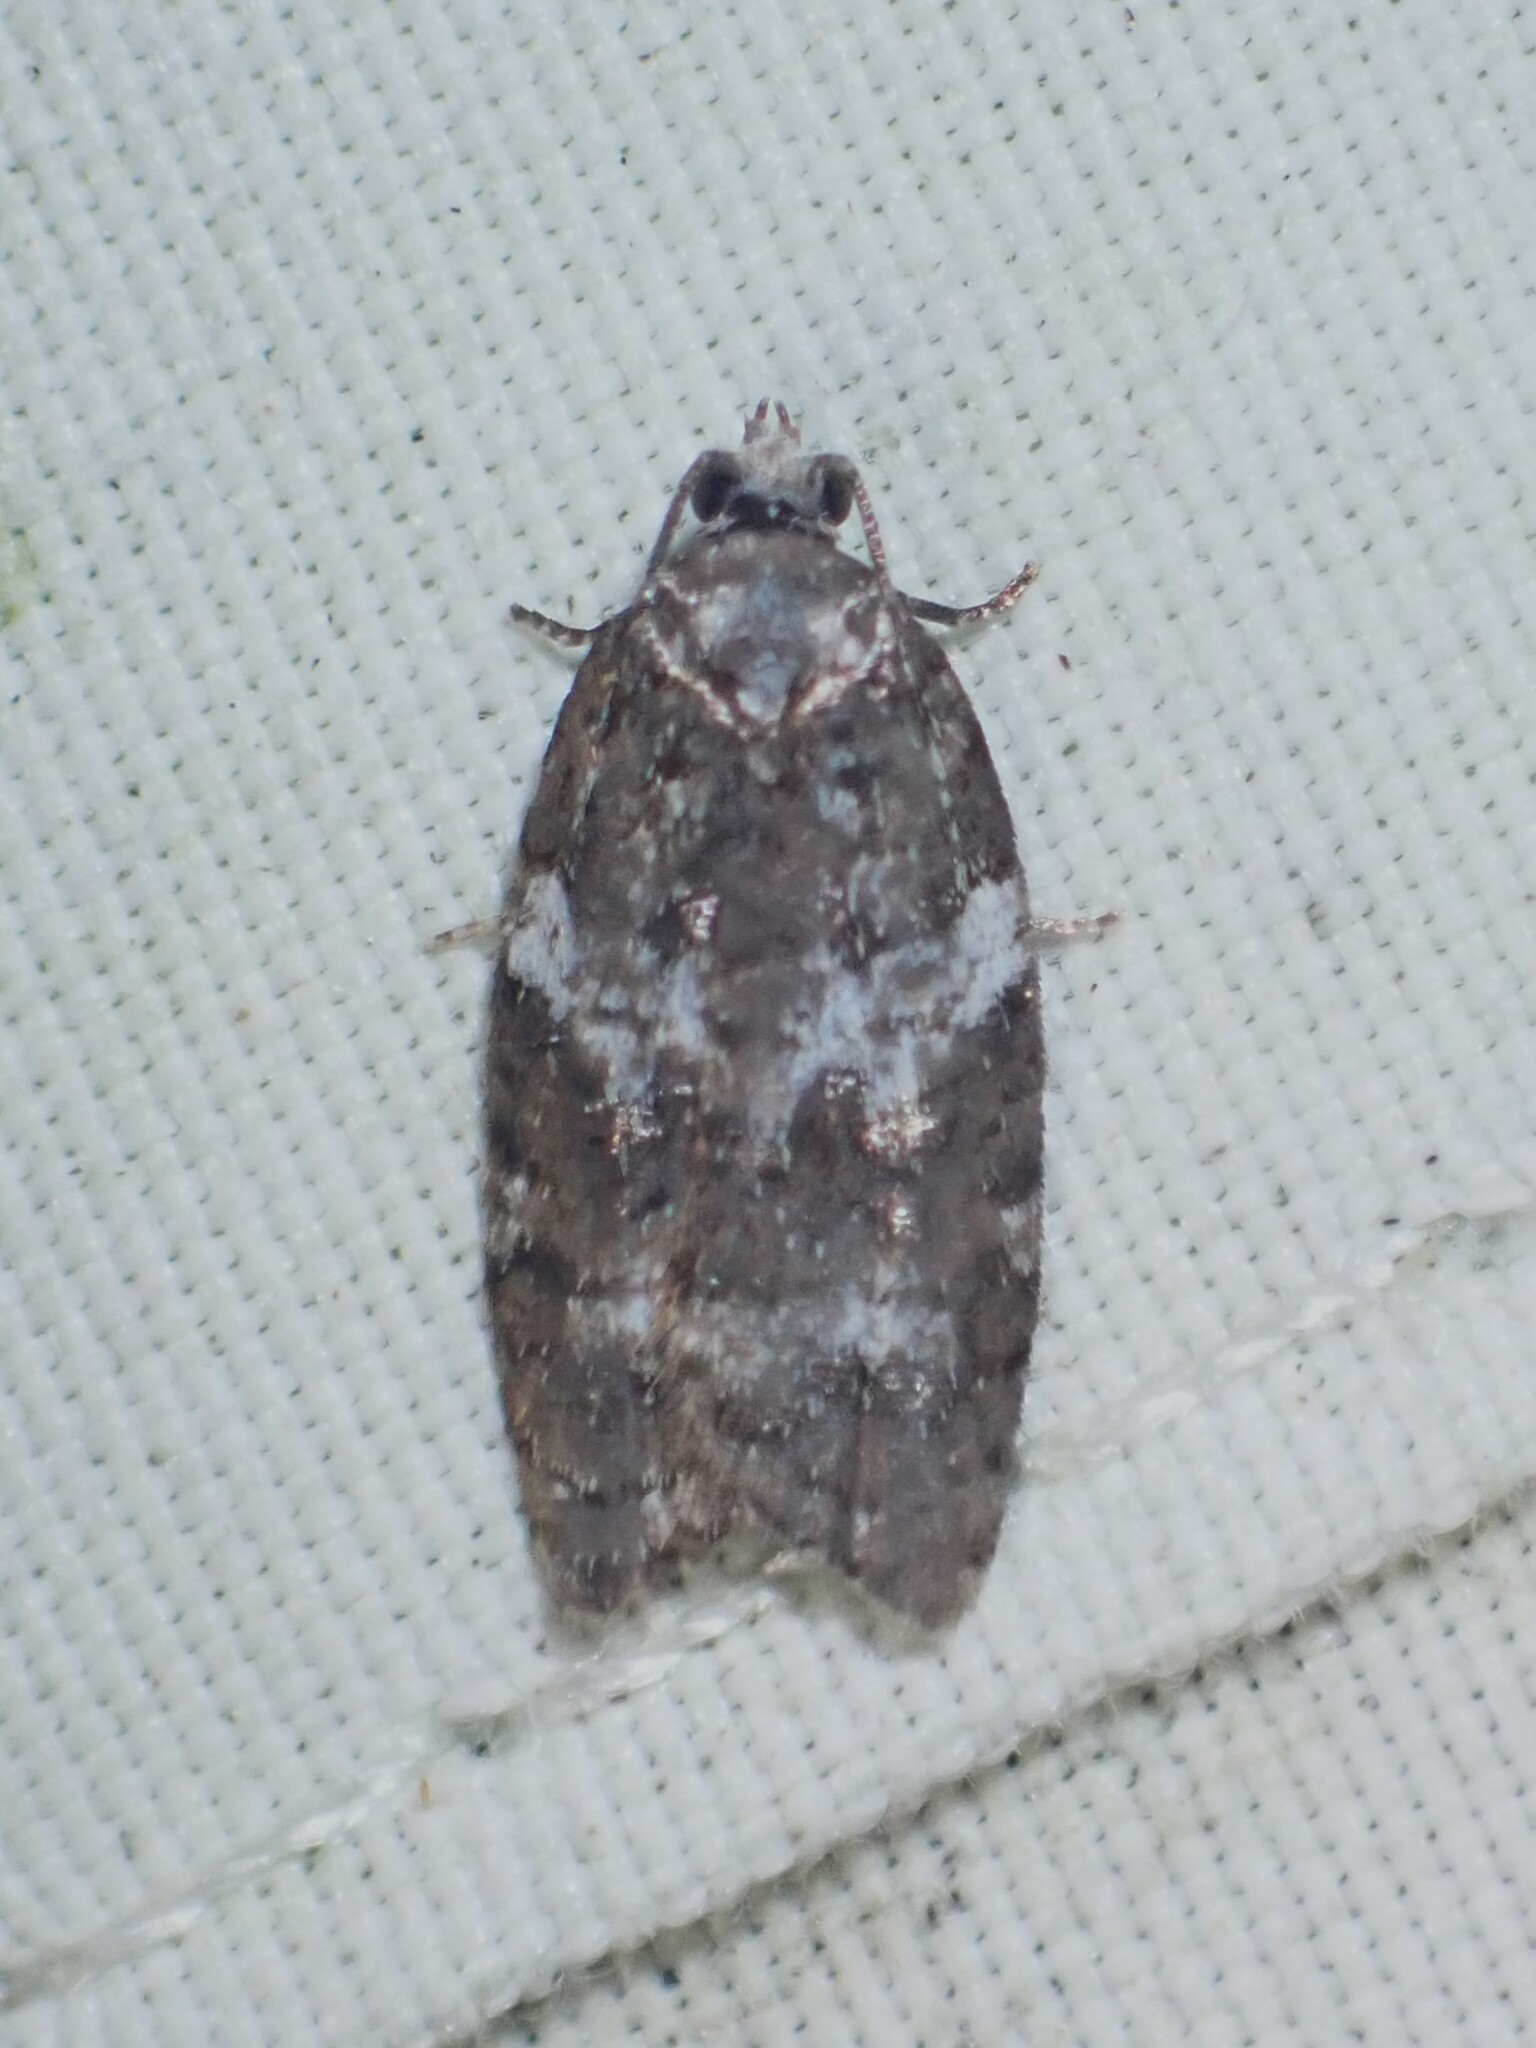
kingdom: Animalia
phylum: Arthropoda
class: Insecta
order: Lepidoptera
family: Tortricidae
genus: Acleris
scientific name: Acleris variana
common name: Eastern black-headed budworm moth
